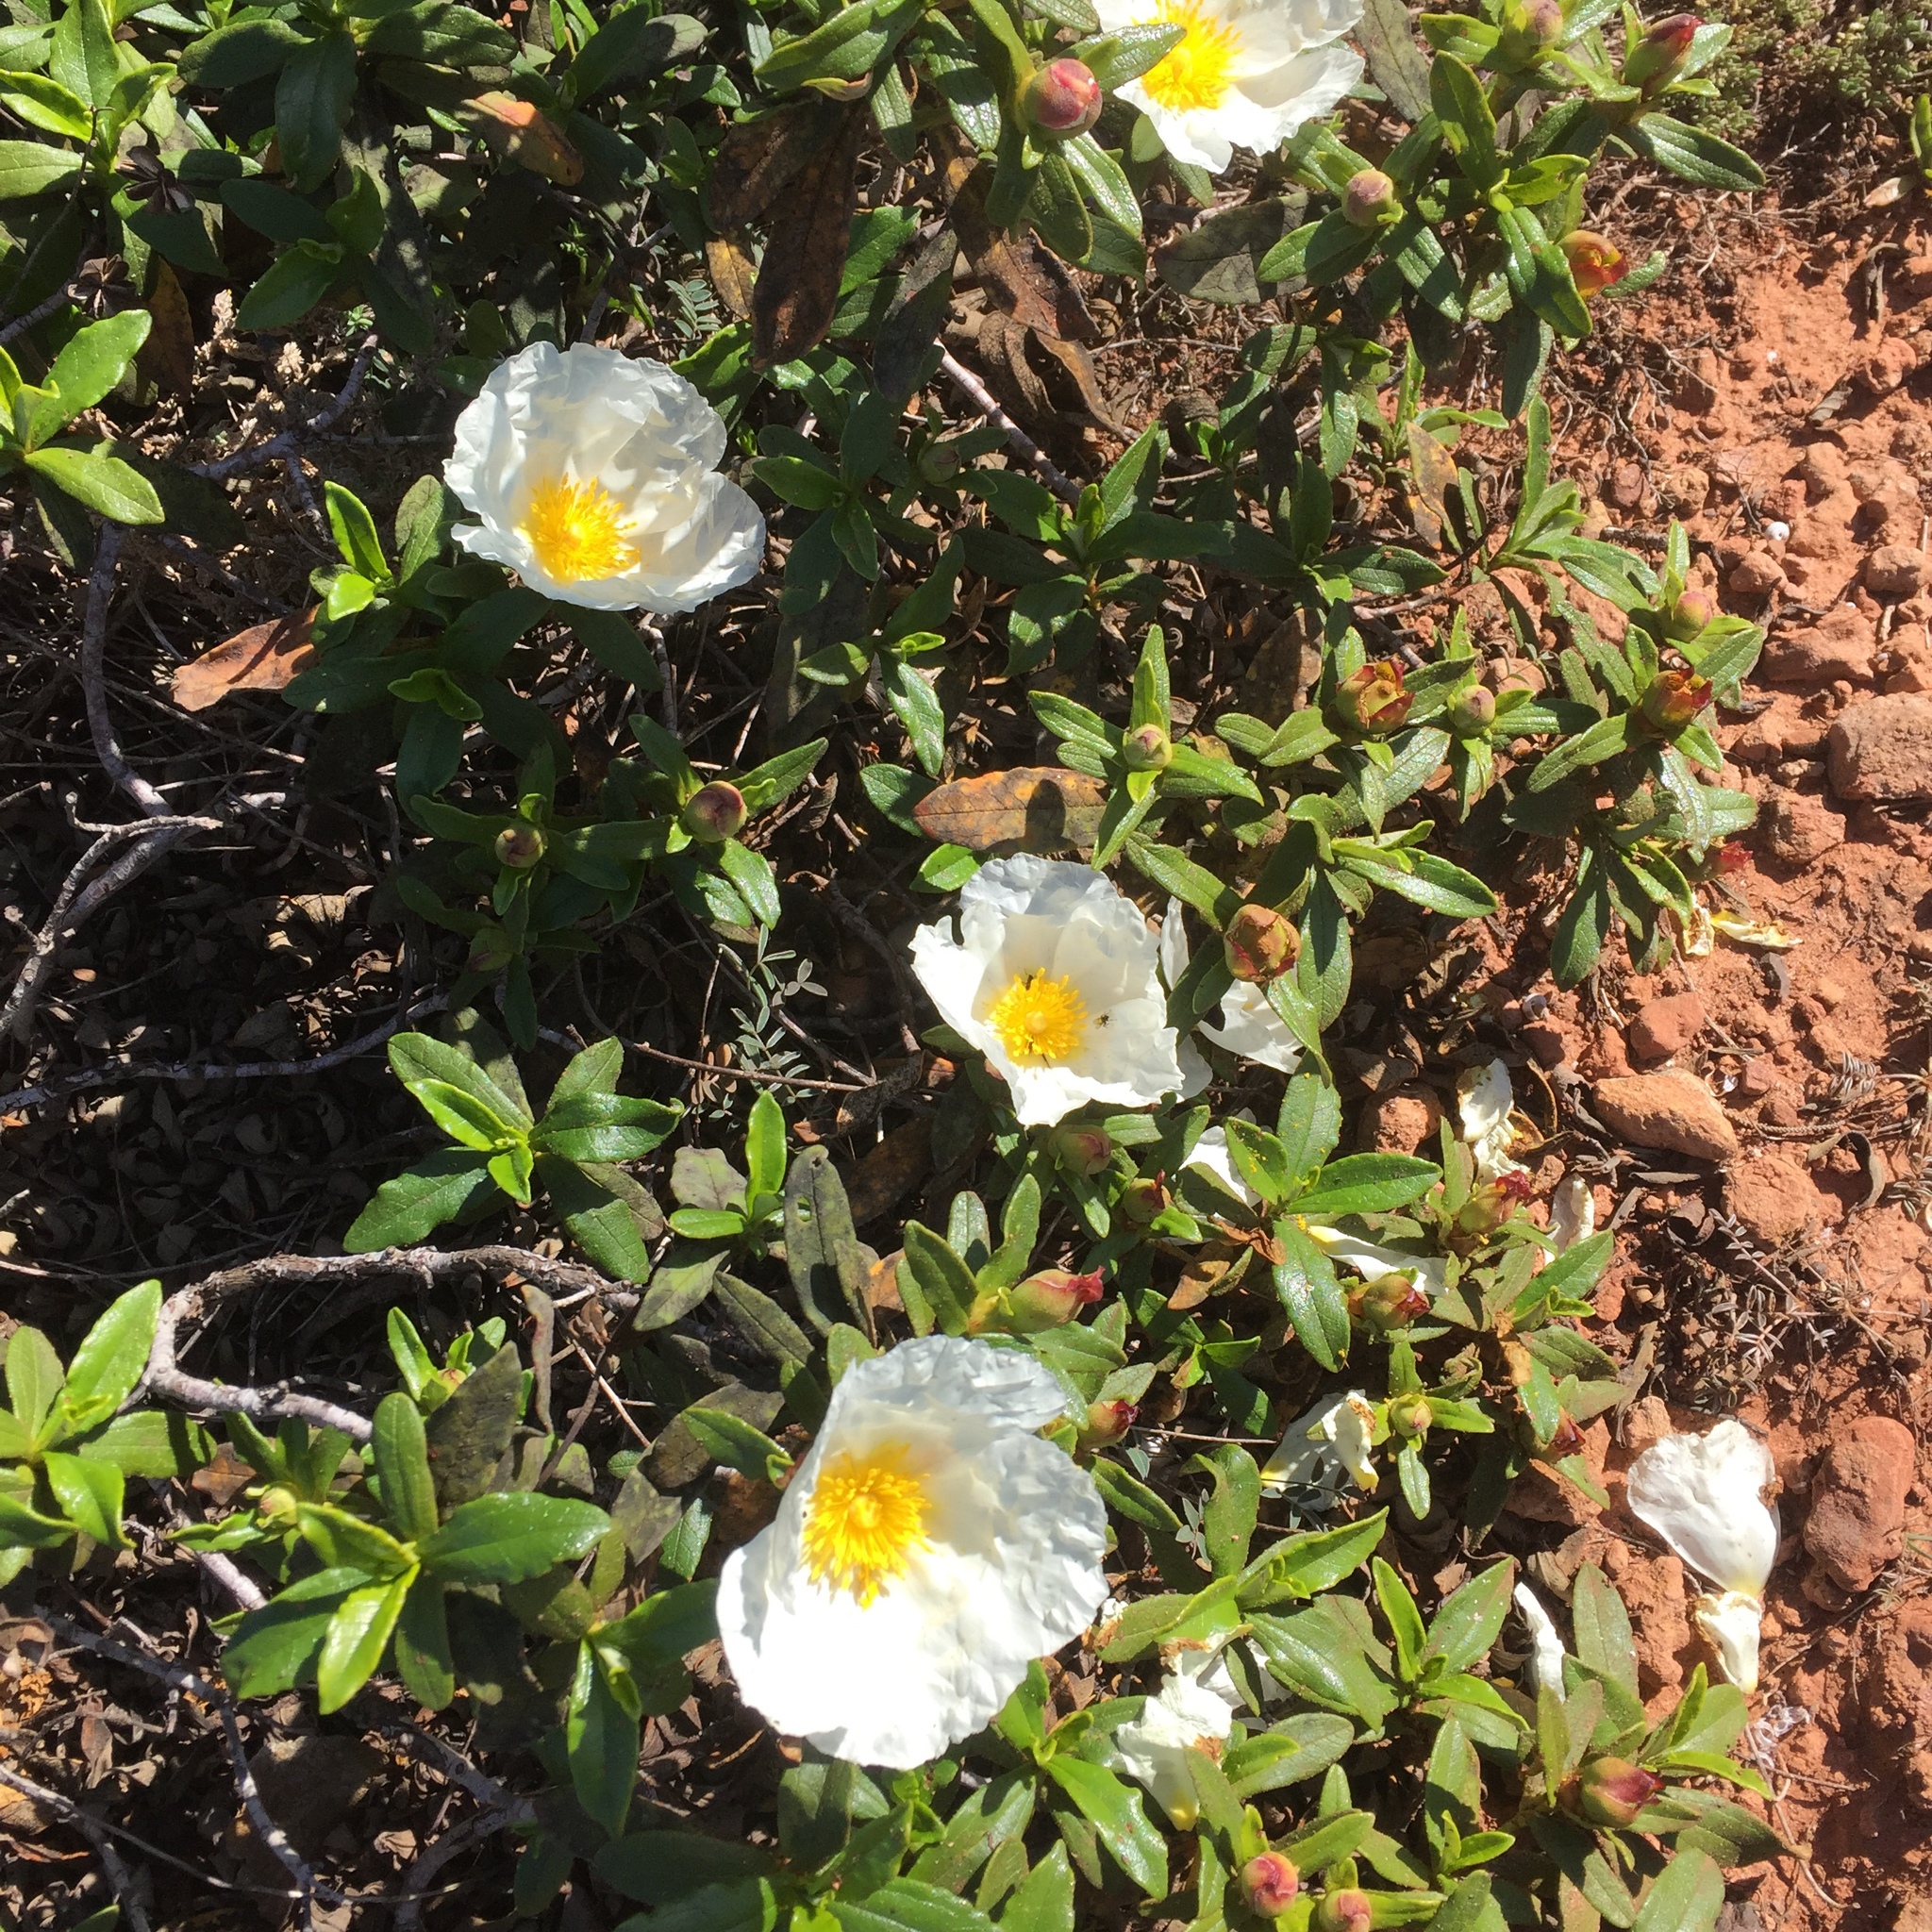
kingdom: Plantae
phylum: Tracheophyta
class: Magnoliopsida
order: Malvales
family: Cistaceae
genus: Cistus
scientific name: Cistus ladanifer
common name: Common gum cistus
